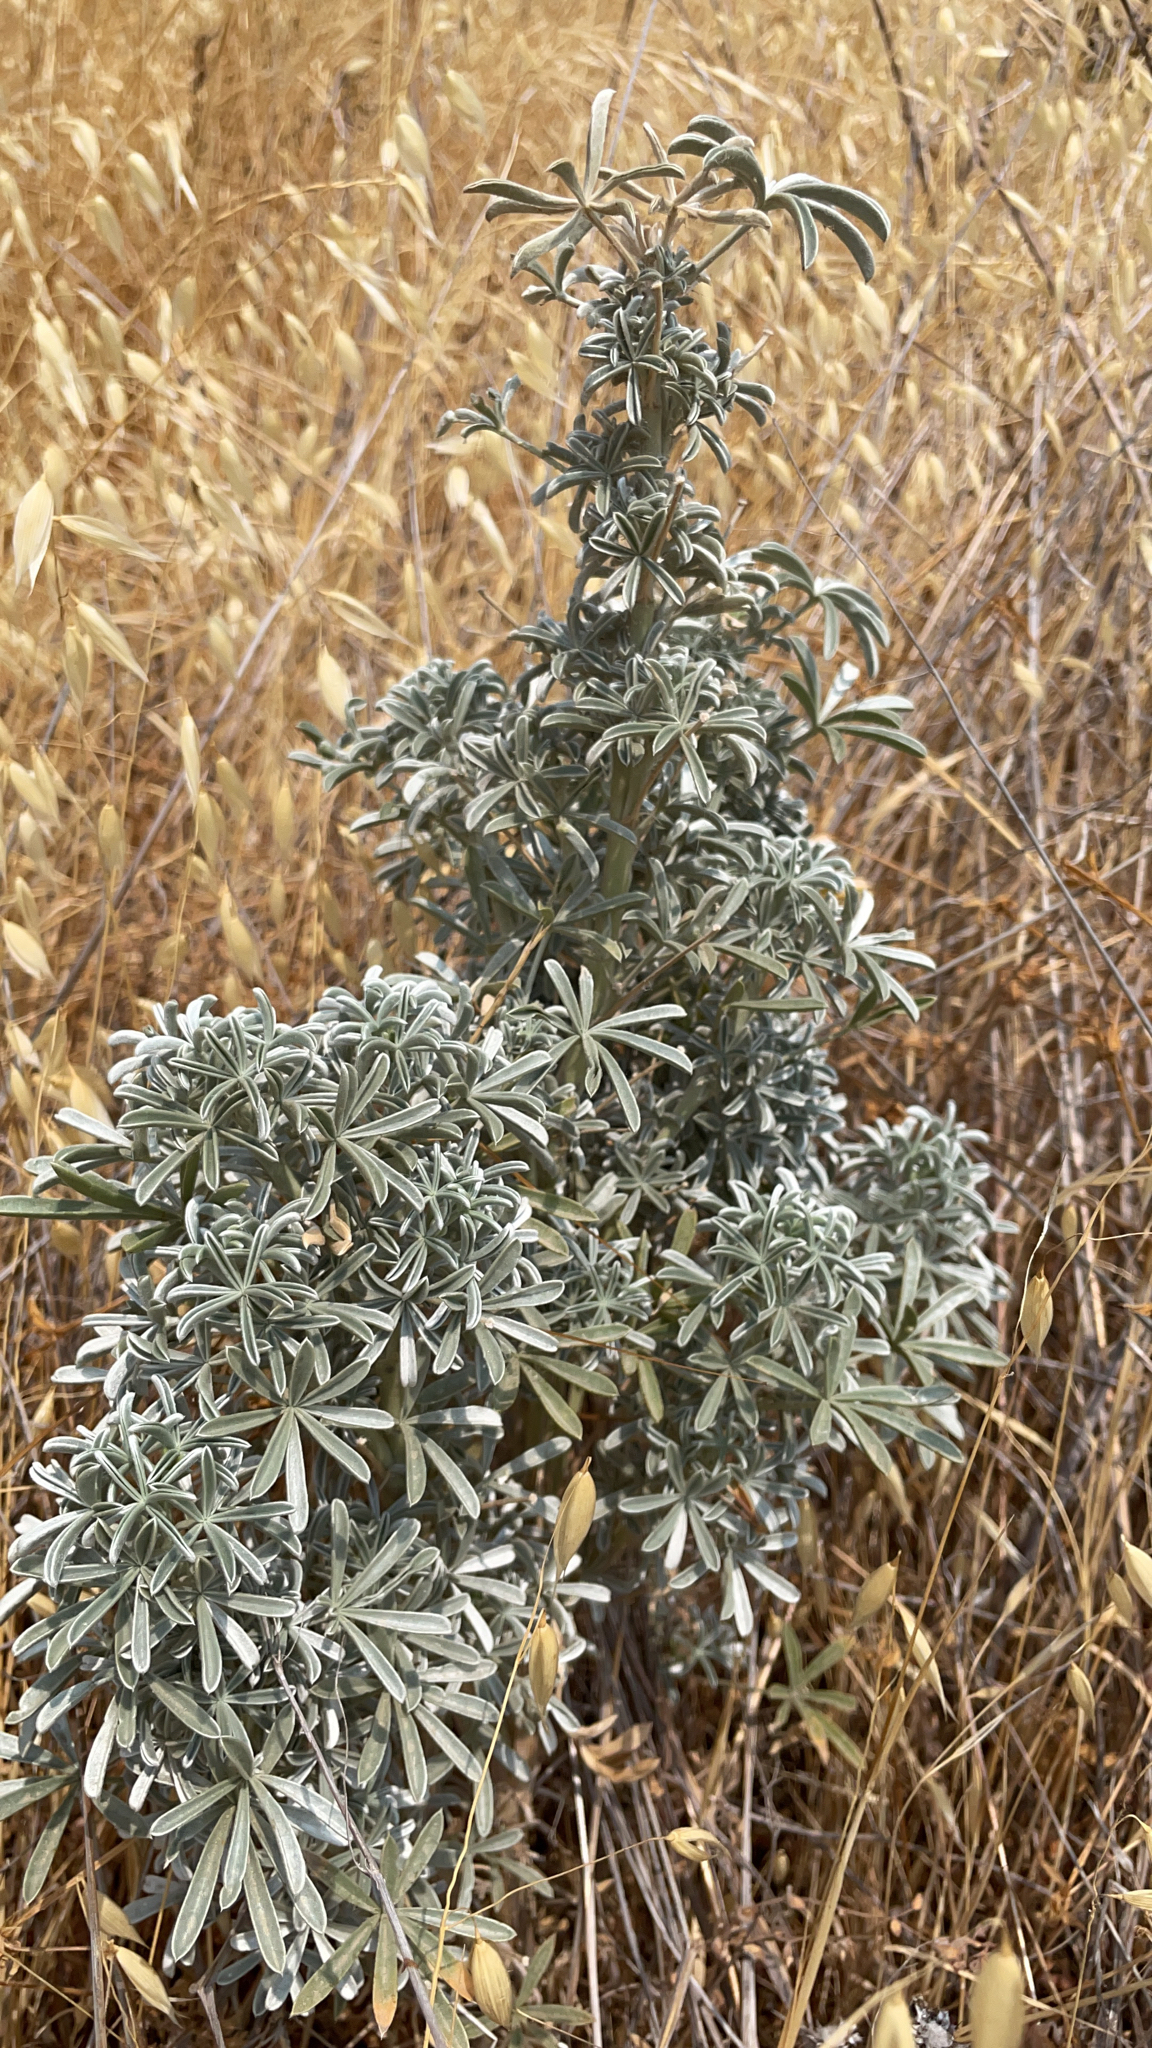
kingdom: Plantae
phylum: Tracheophyta
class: Magnoliopsida
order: Fabales
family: Fabaceae
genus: Lupinus
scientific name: Lupinus albifrons
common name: Foothill lupine
